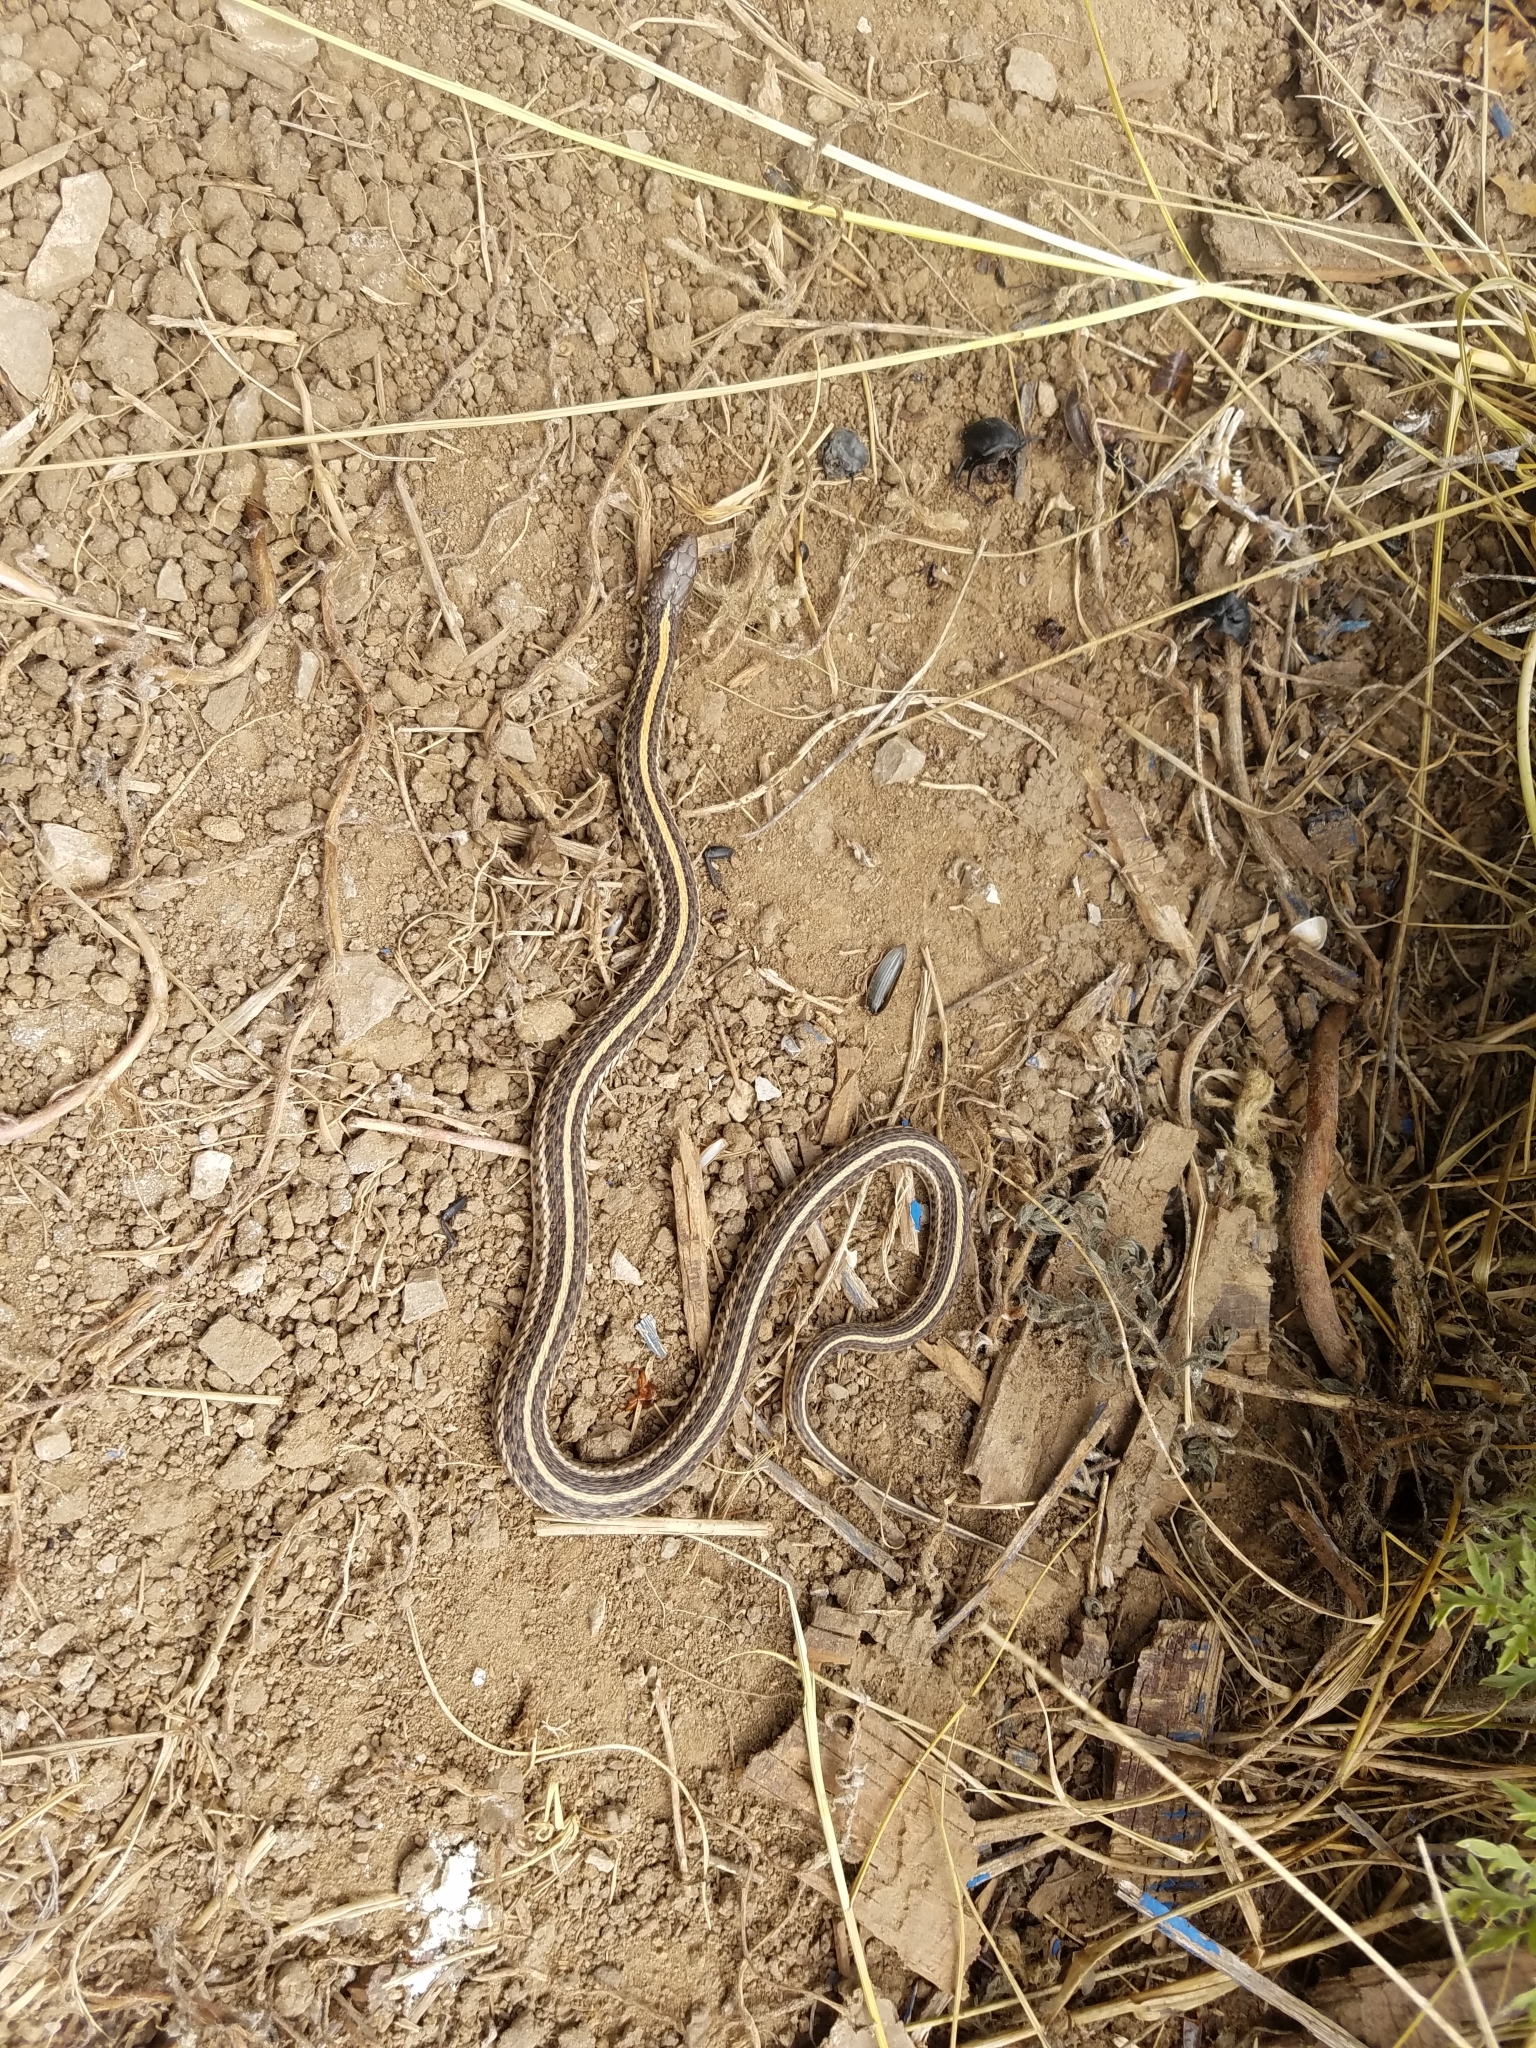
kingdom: Animalia
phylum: Chordata
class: Squamata
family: Colubridae
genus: Thamnophis
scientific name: Thamnophis radix
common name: Plains garter snake
